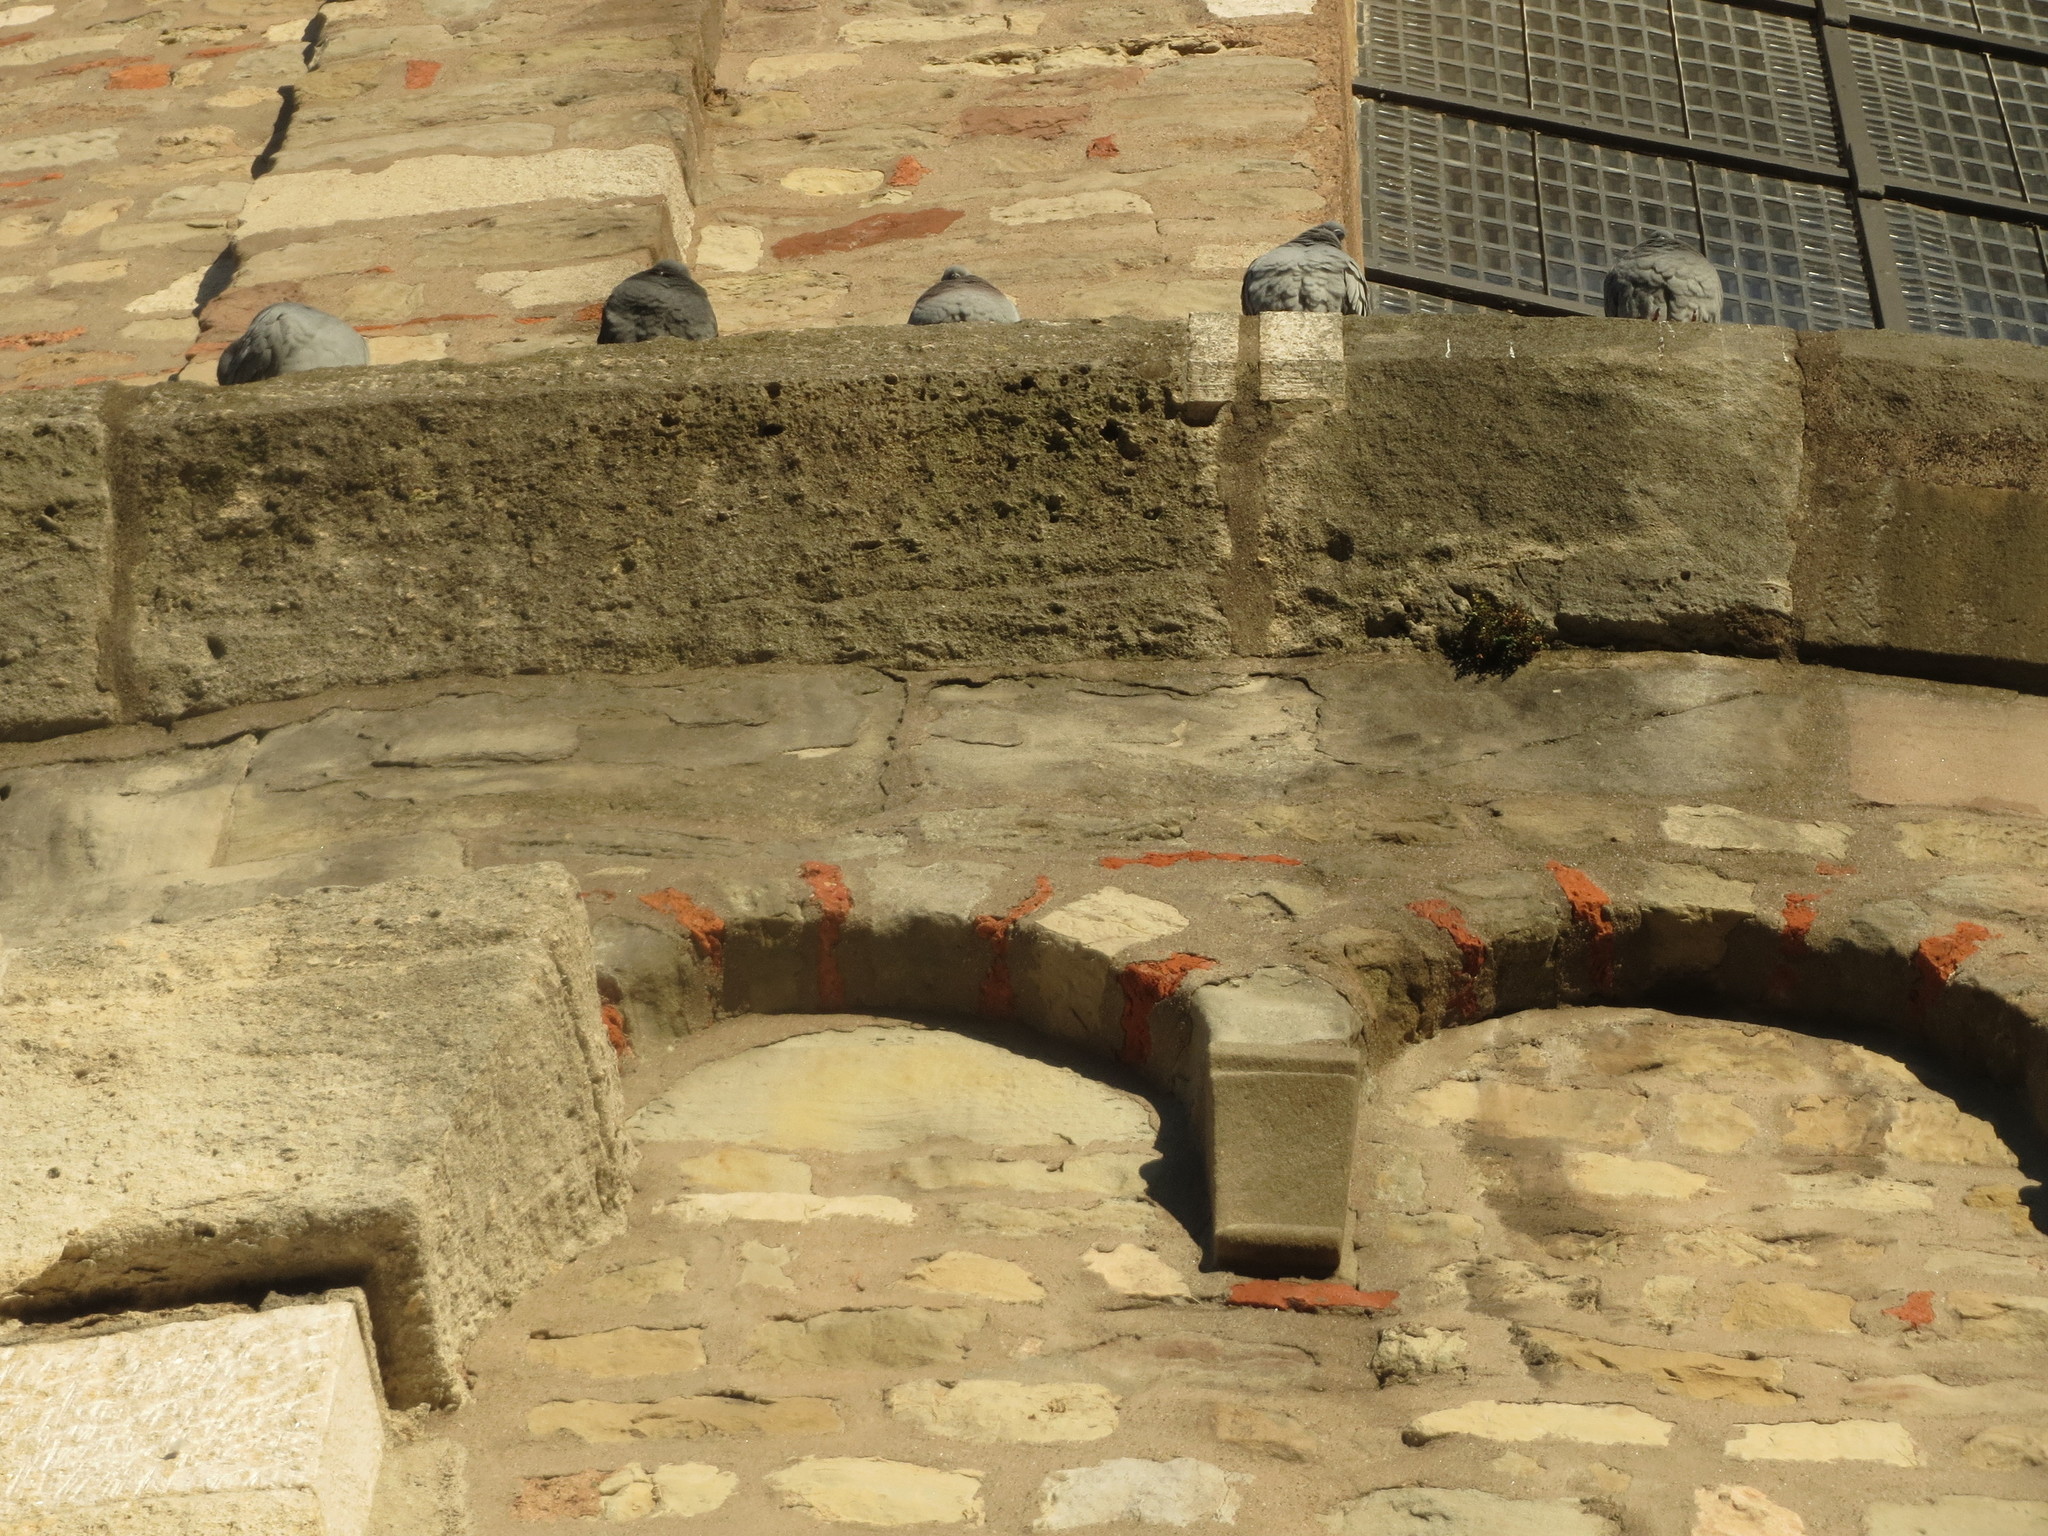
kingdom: Animalia
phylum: Chordata
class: Aves
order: Columbiformes
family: Columbidae
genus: Columba
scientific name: Columba livia
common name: Rock pigeon
